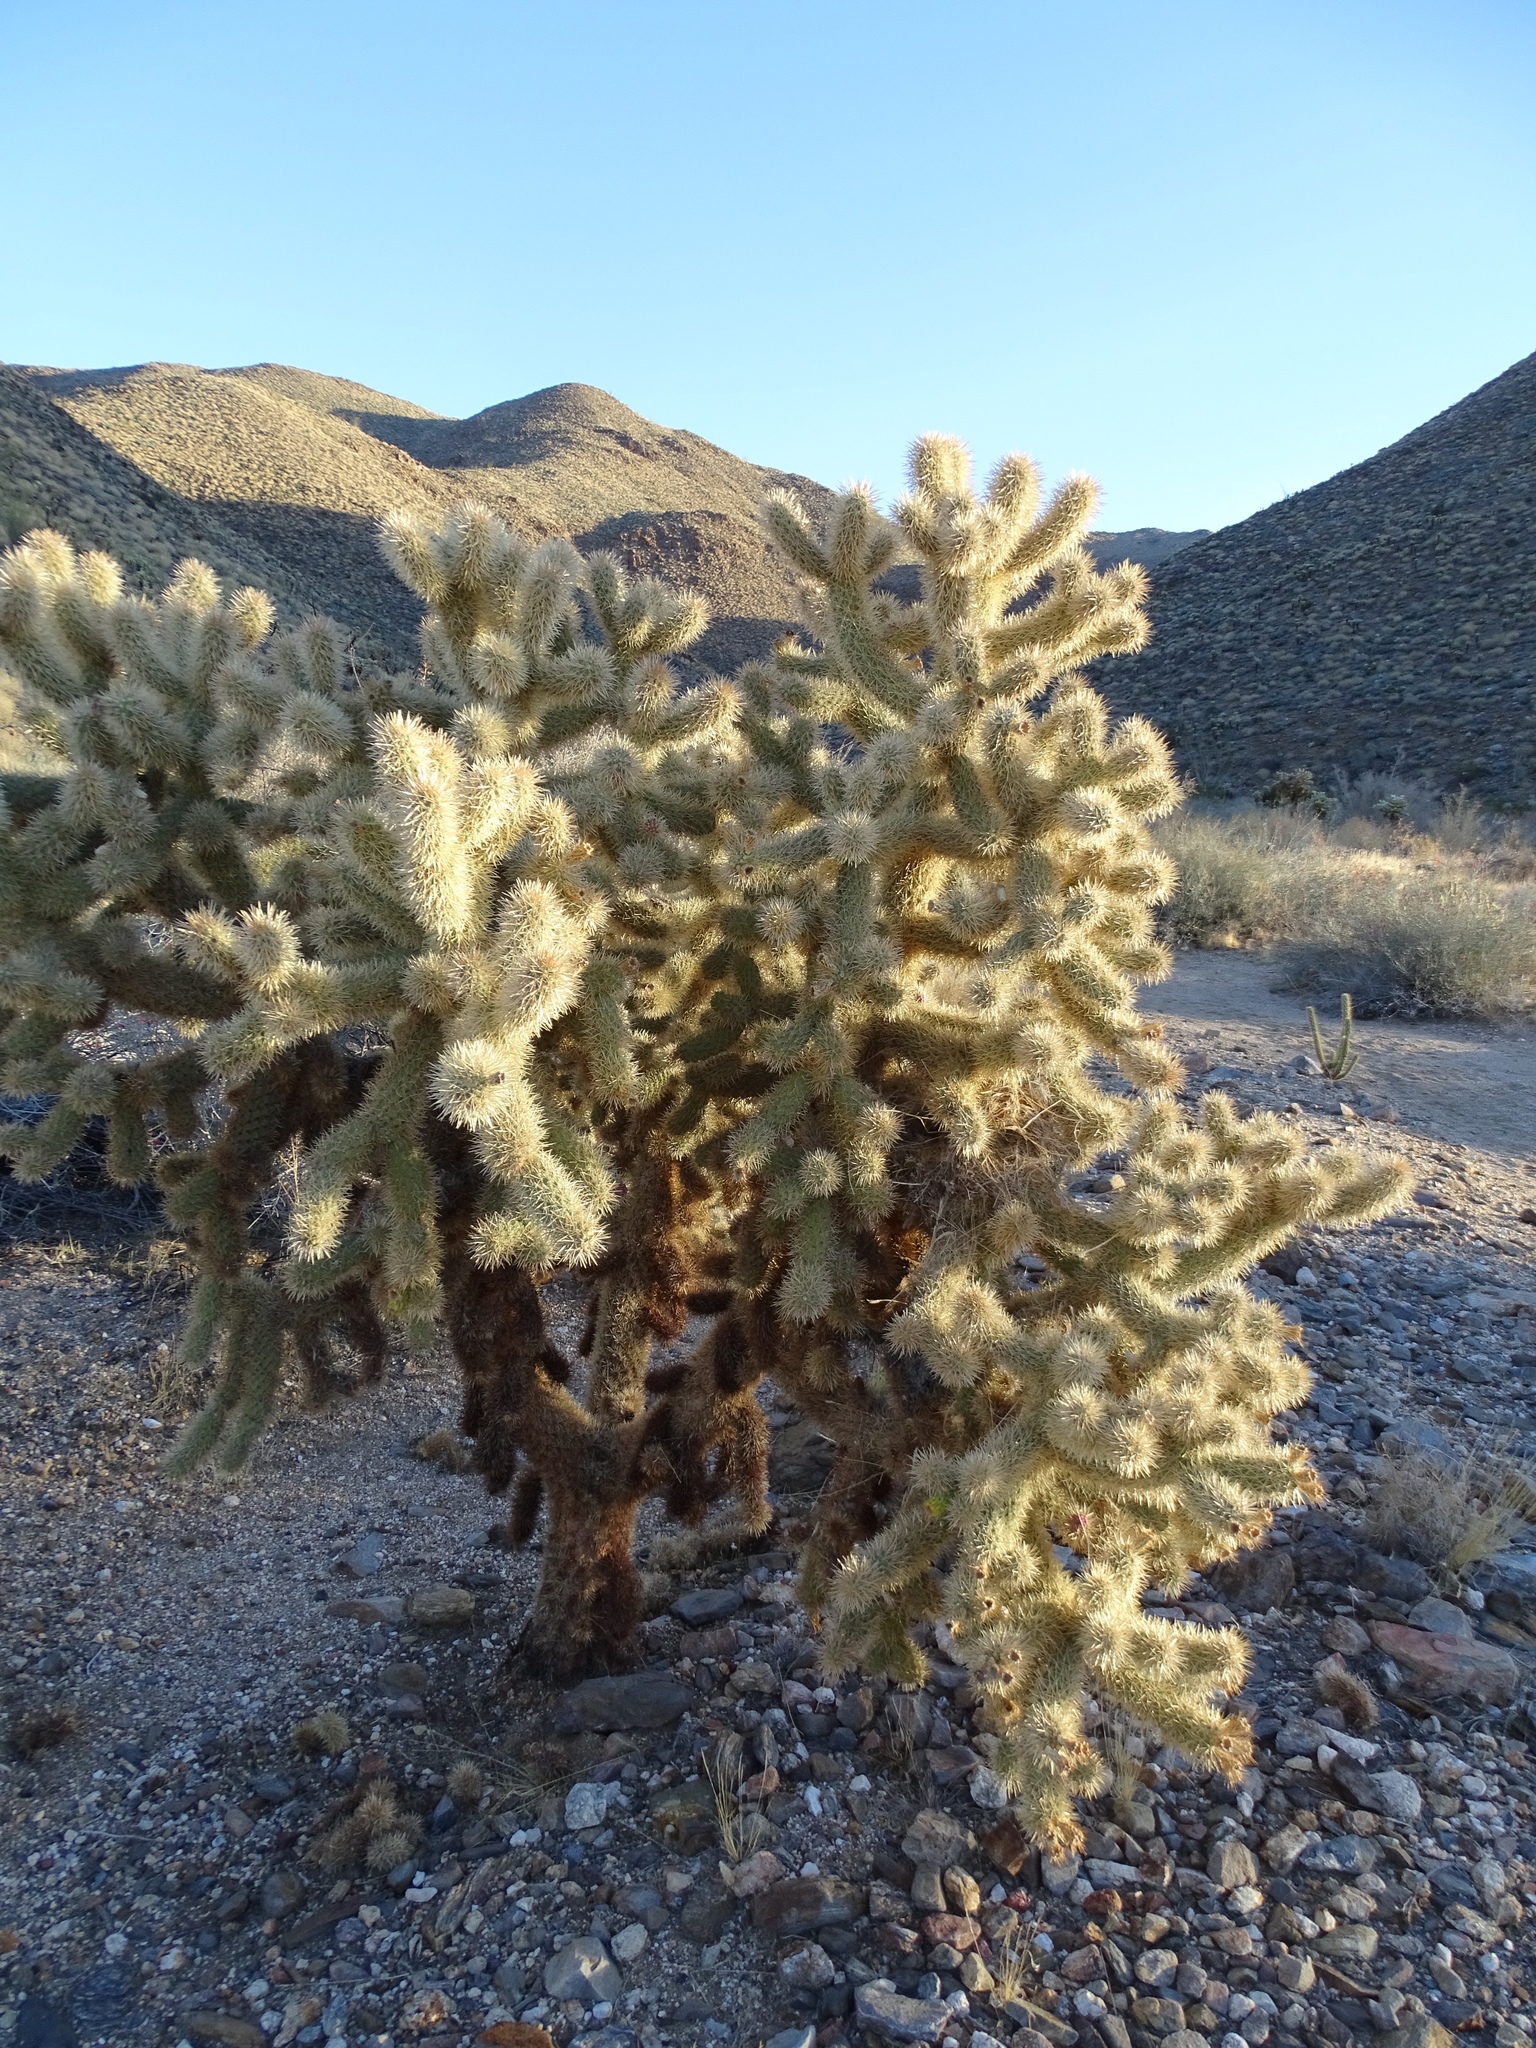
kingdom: Plantae
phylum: Tracheophyta
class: Magnoliopsida
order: Caryophyllales
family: Cactaceae
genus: Cylindropuntia
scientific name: Cylindropuntia fosbergii
